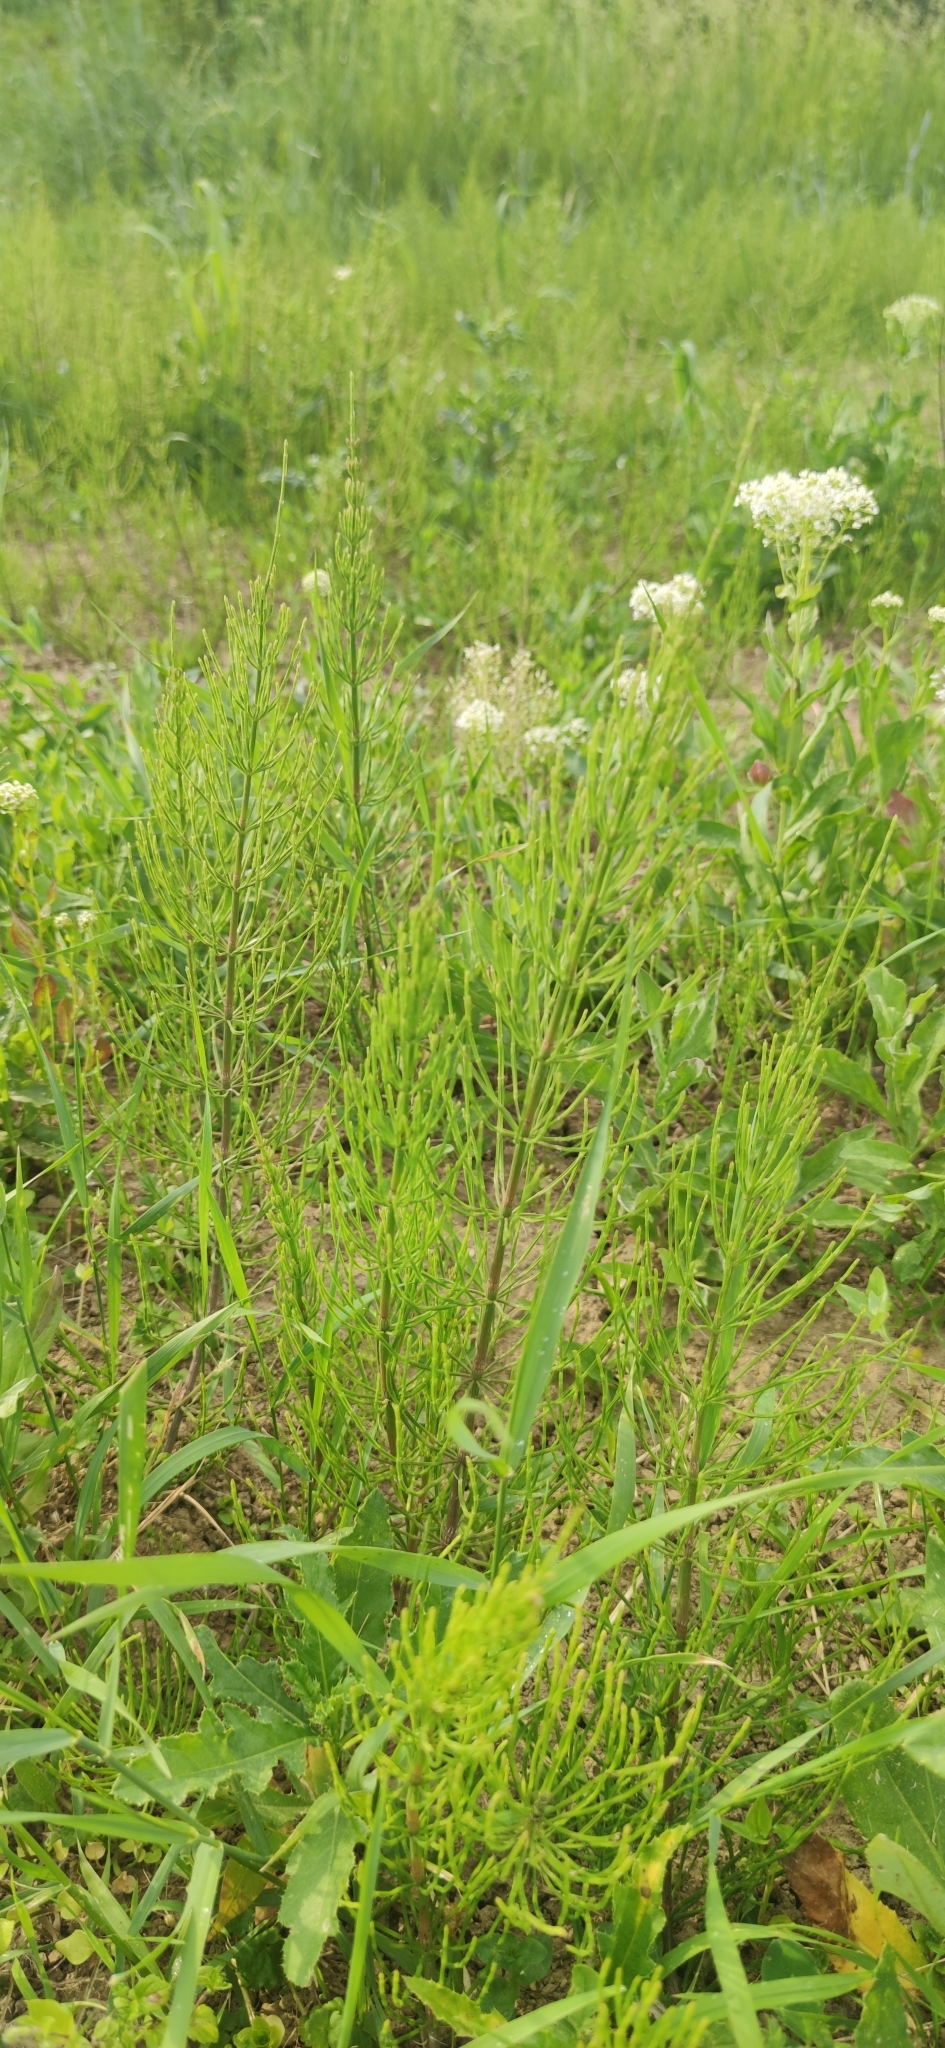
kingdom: Plantae
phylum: Tracheophyta
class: Polypodiopsida
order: Equisetales
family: Equisetaceae
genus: Equisetum
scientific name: Equisetum arvense
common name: Field horsetail
